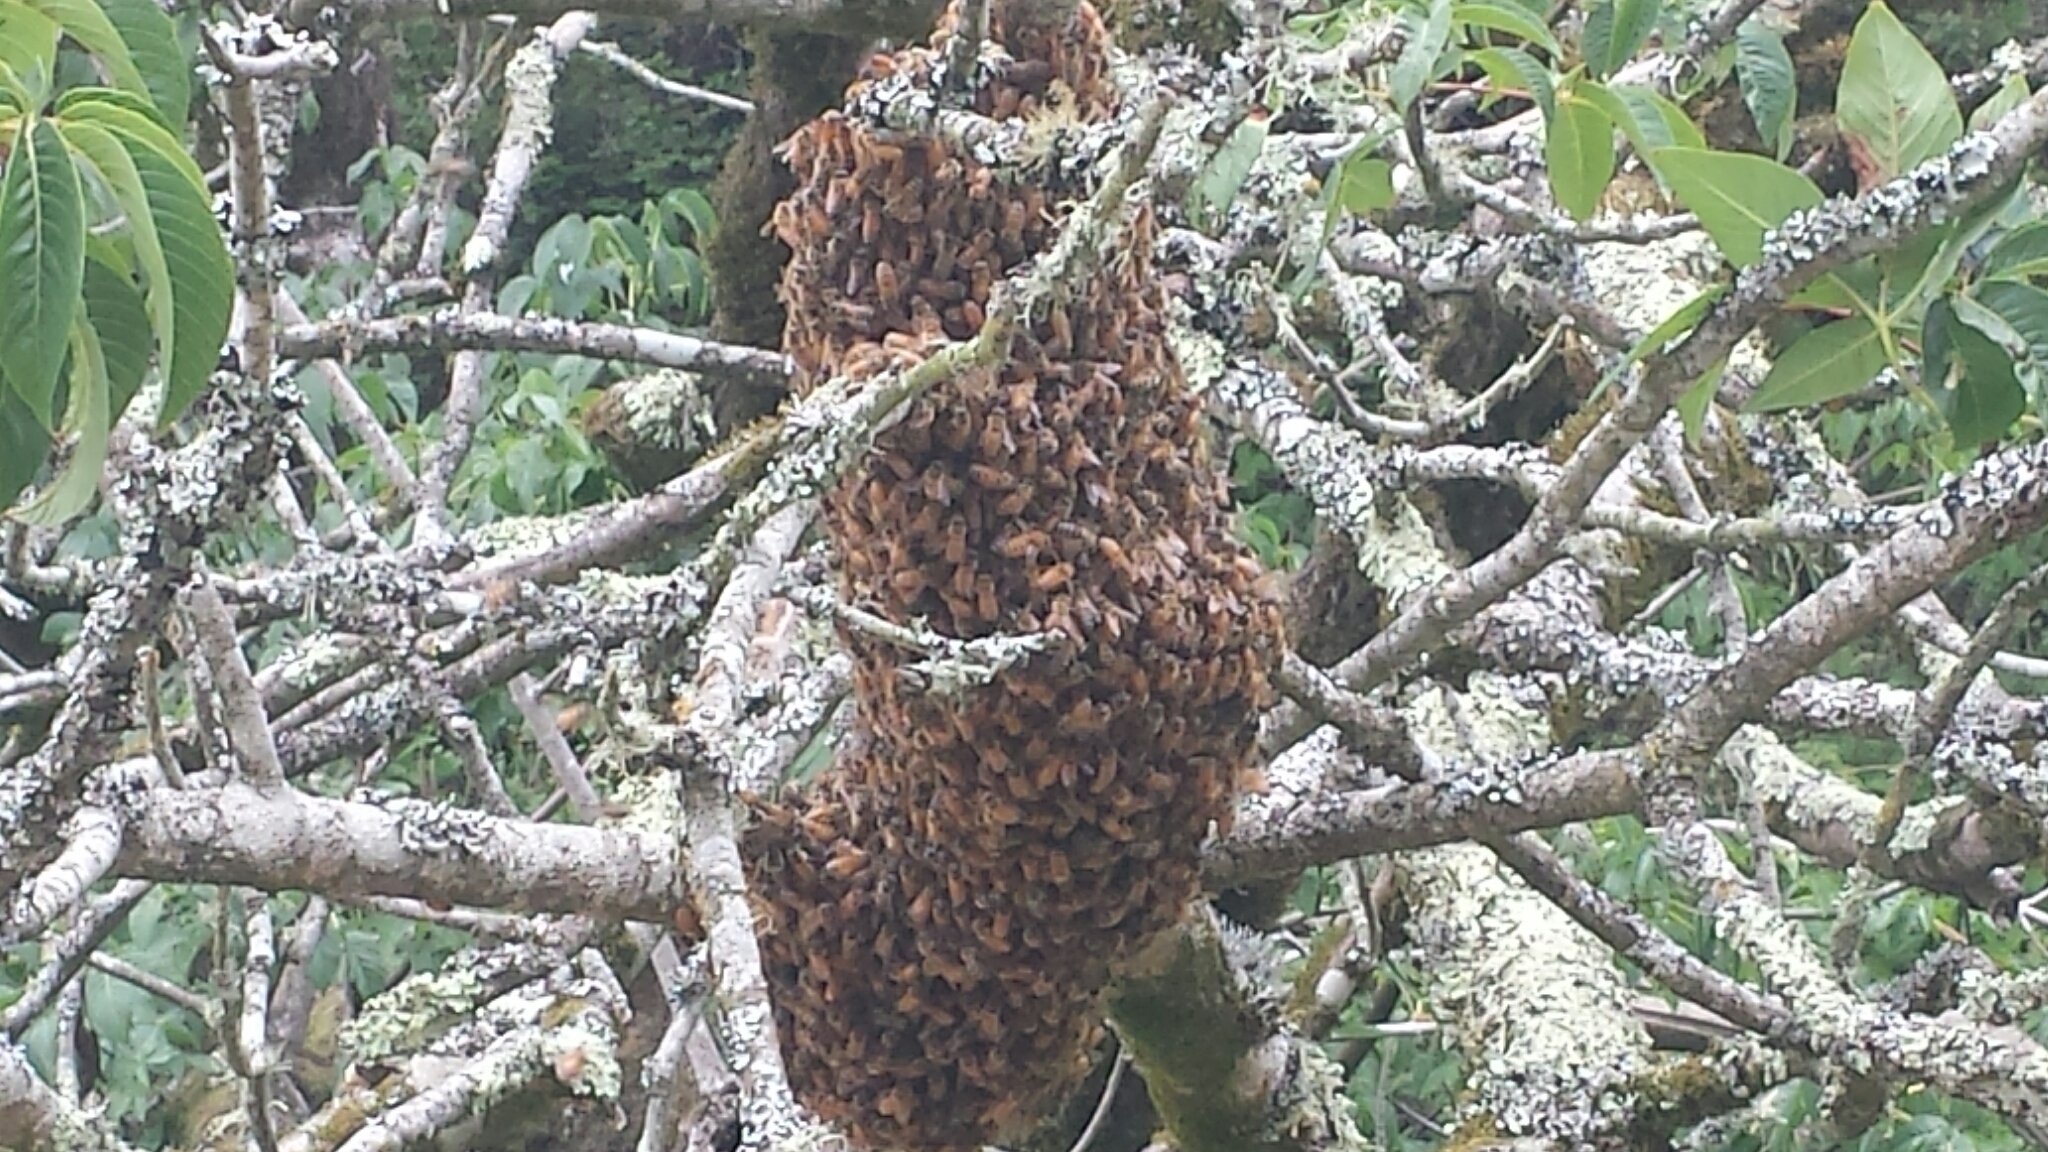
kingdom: Animalia
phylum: Arthropoda
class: Insecta
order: Hymenoptera
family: Apidae
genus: Apis
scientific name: Apis mellifera
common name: Honey bee
